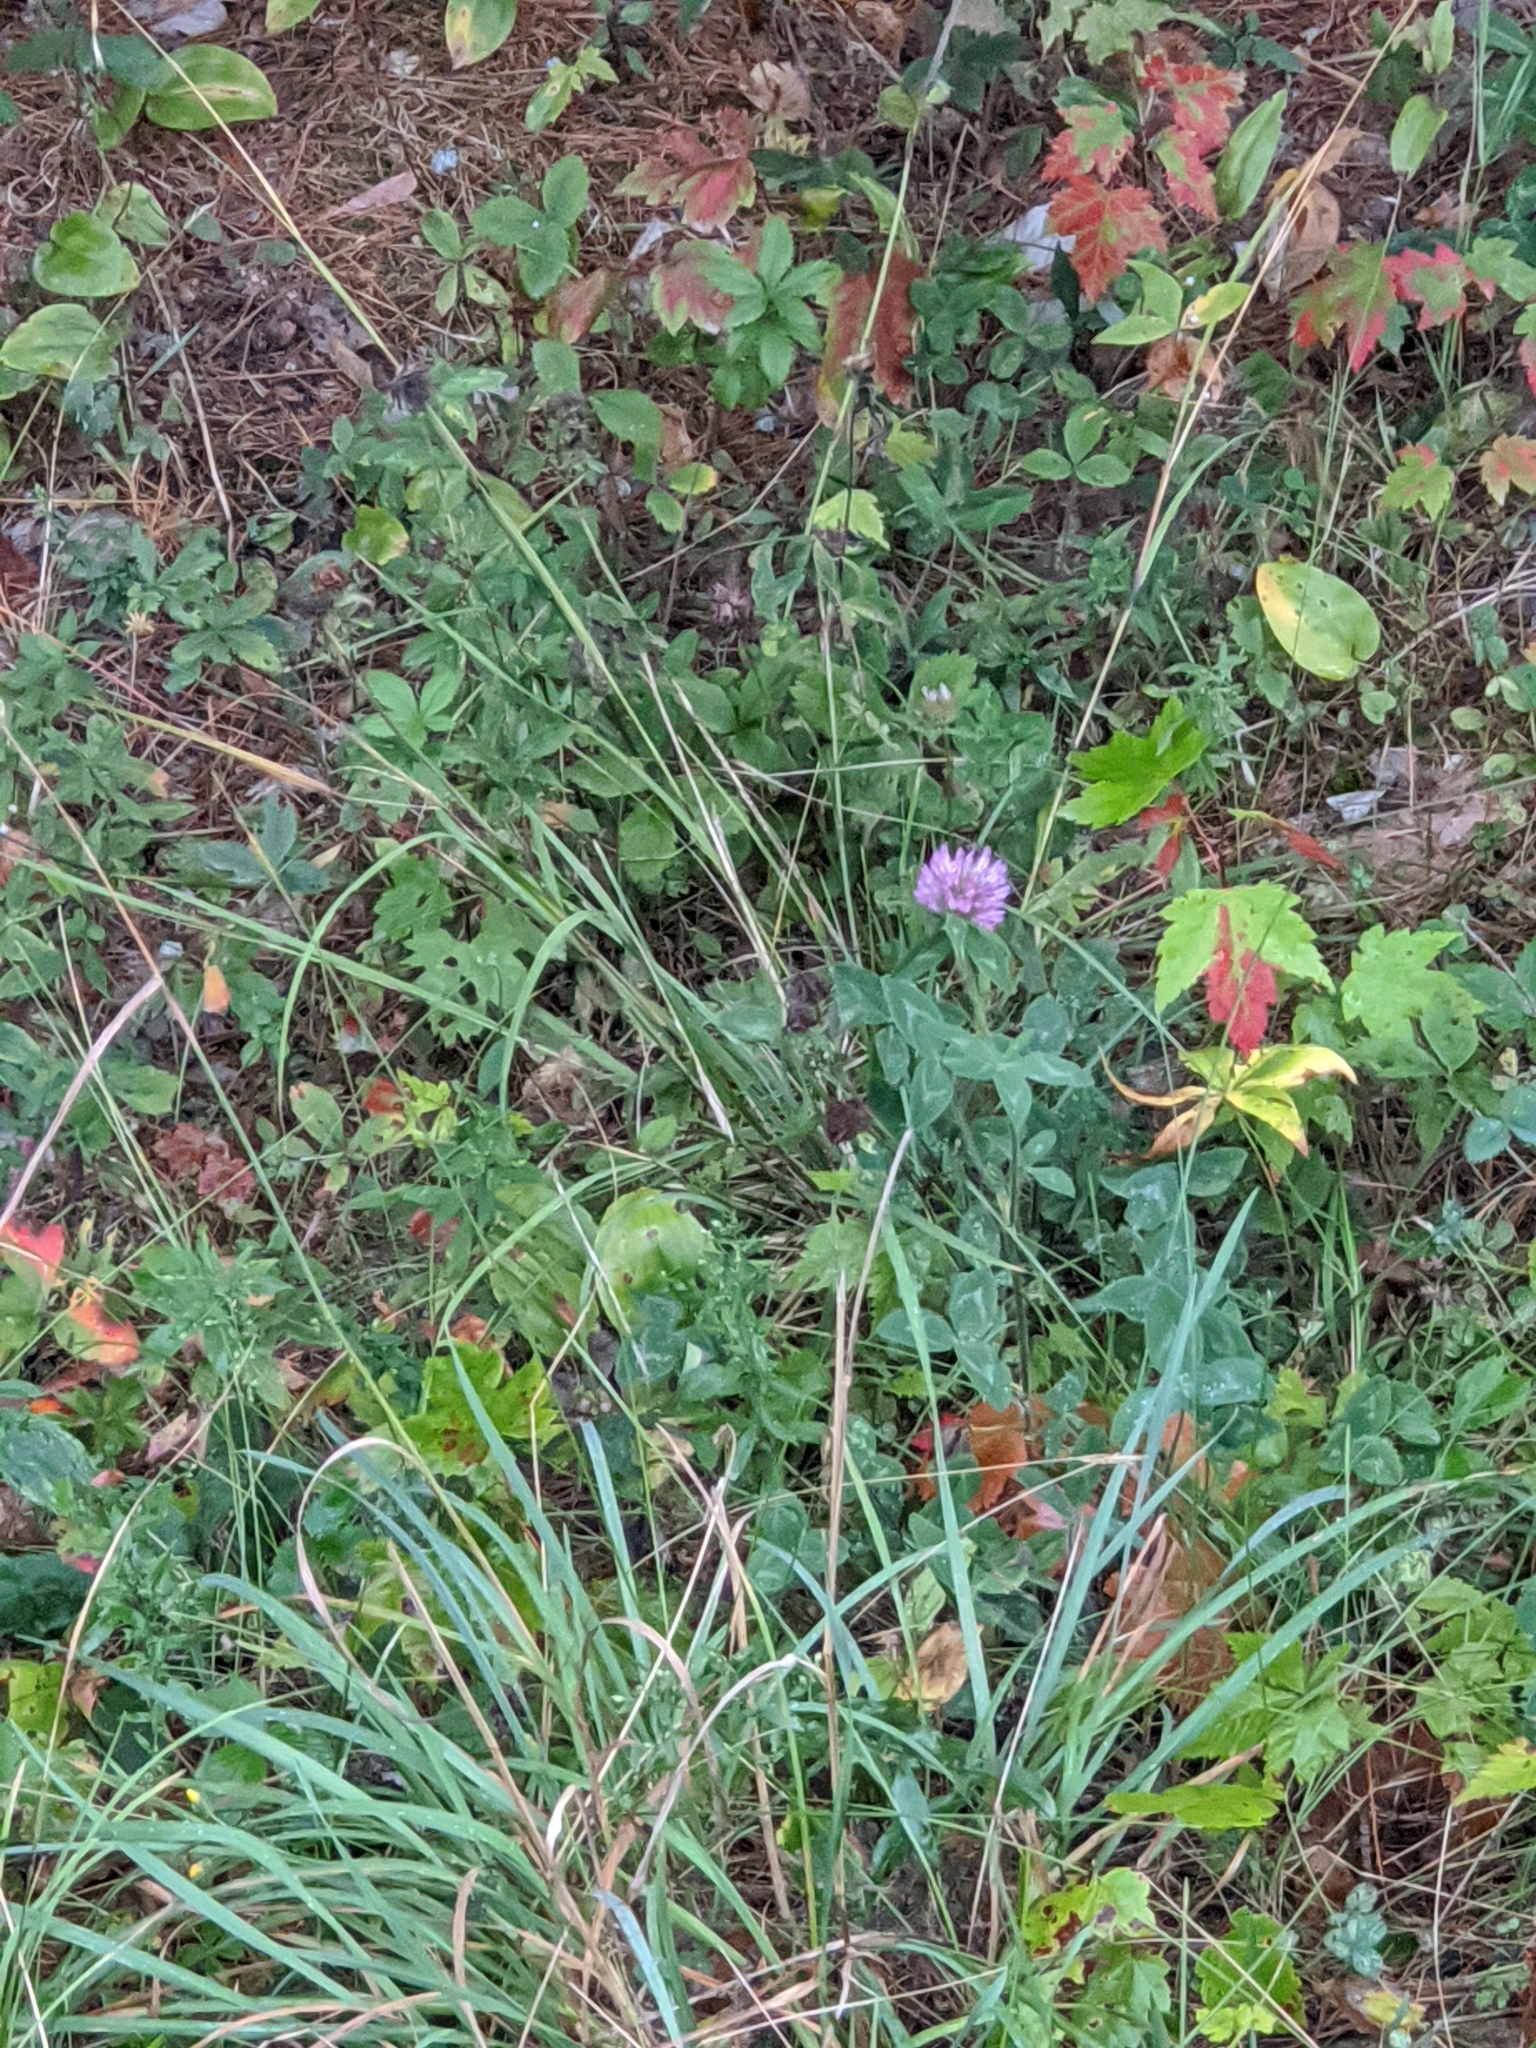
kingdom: Plantae
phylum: Tracheophyta
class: Magnoliopsida
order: Fabales
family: Fabaceae
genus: Trifolium
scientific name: Trifolium pratense
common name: Red clover
